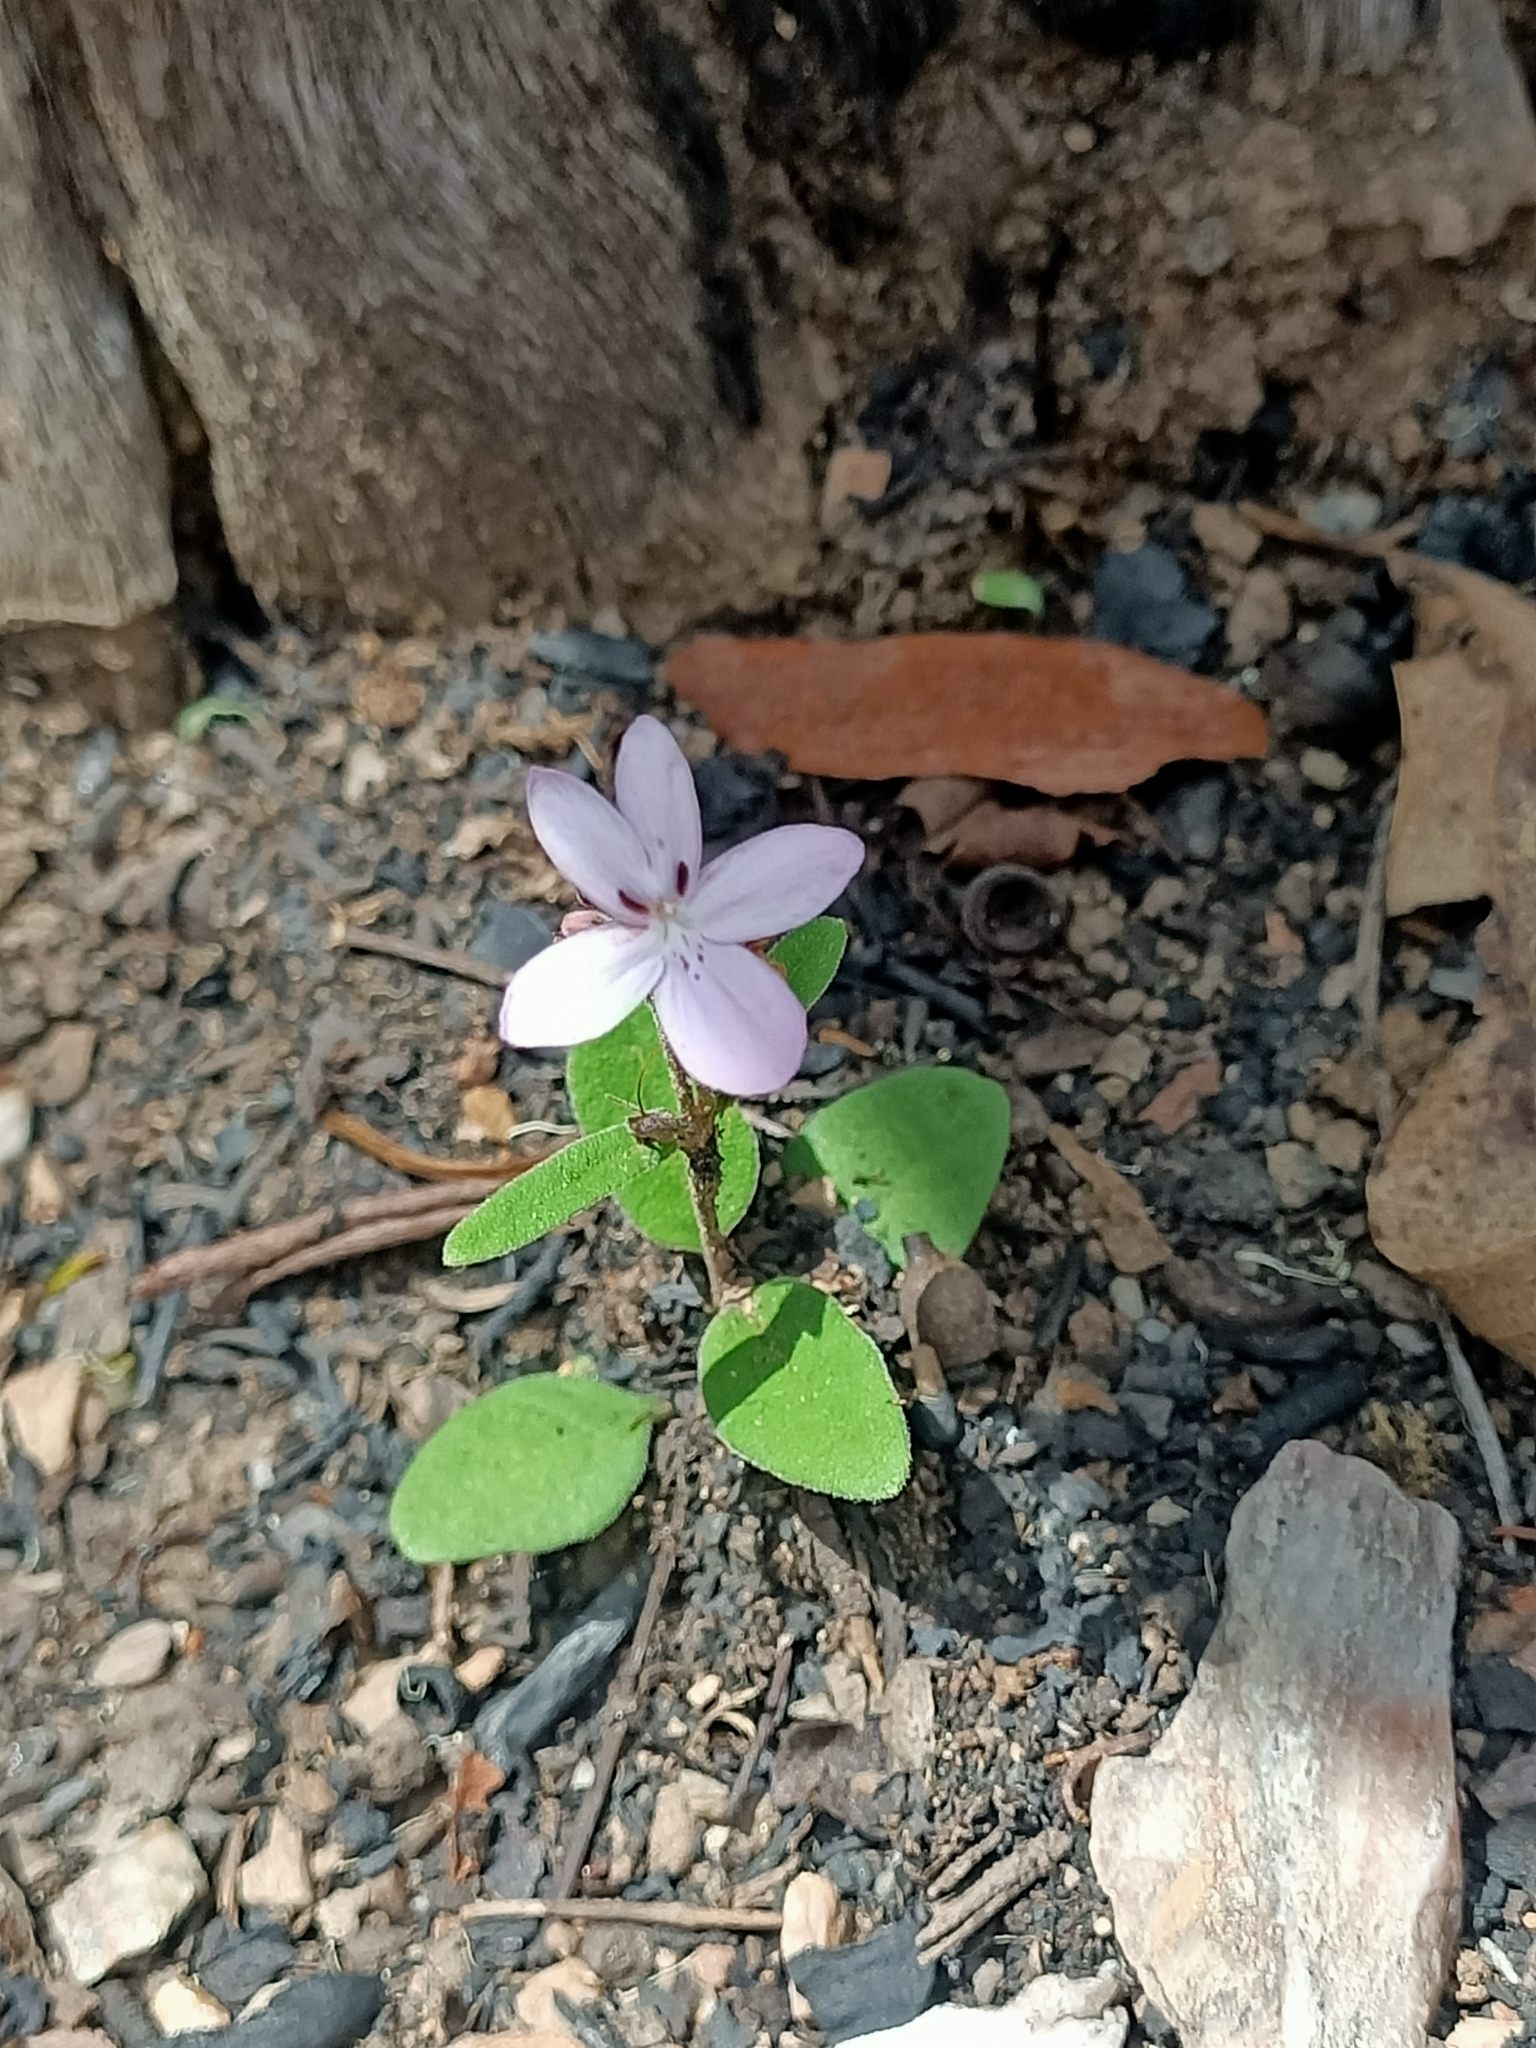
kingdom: Plantae
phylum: Tracheophyta
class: Magnoliopsida
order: Lamiales
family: Acanthaceae
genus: Pseuderanthemum
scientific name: Pseuderanthemum variabile
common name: Night and afternoon
